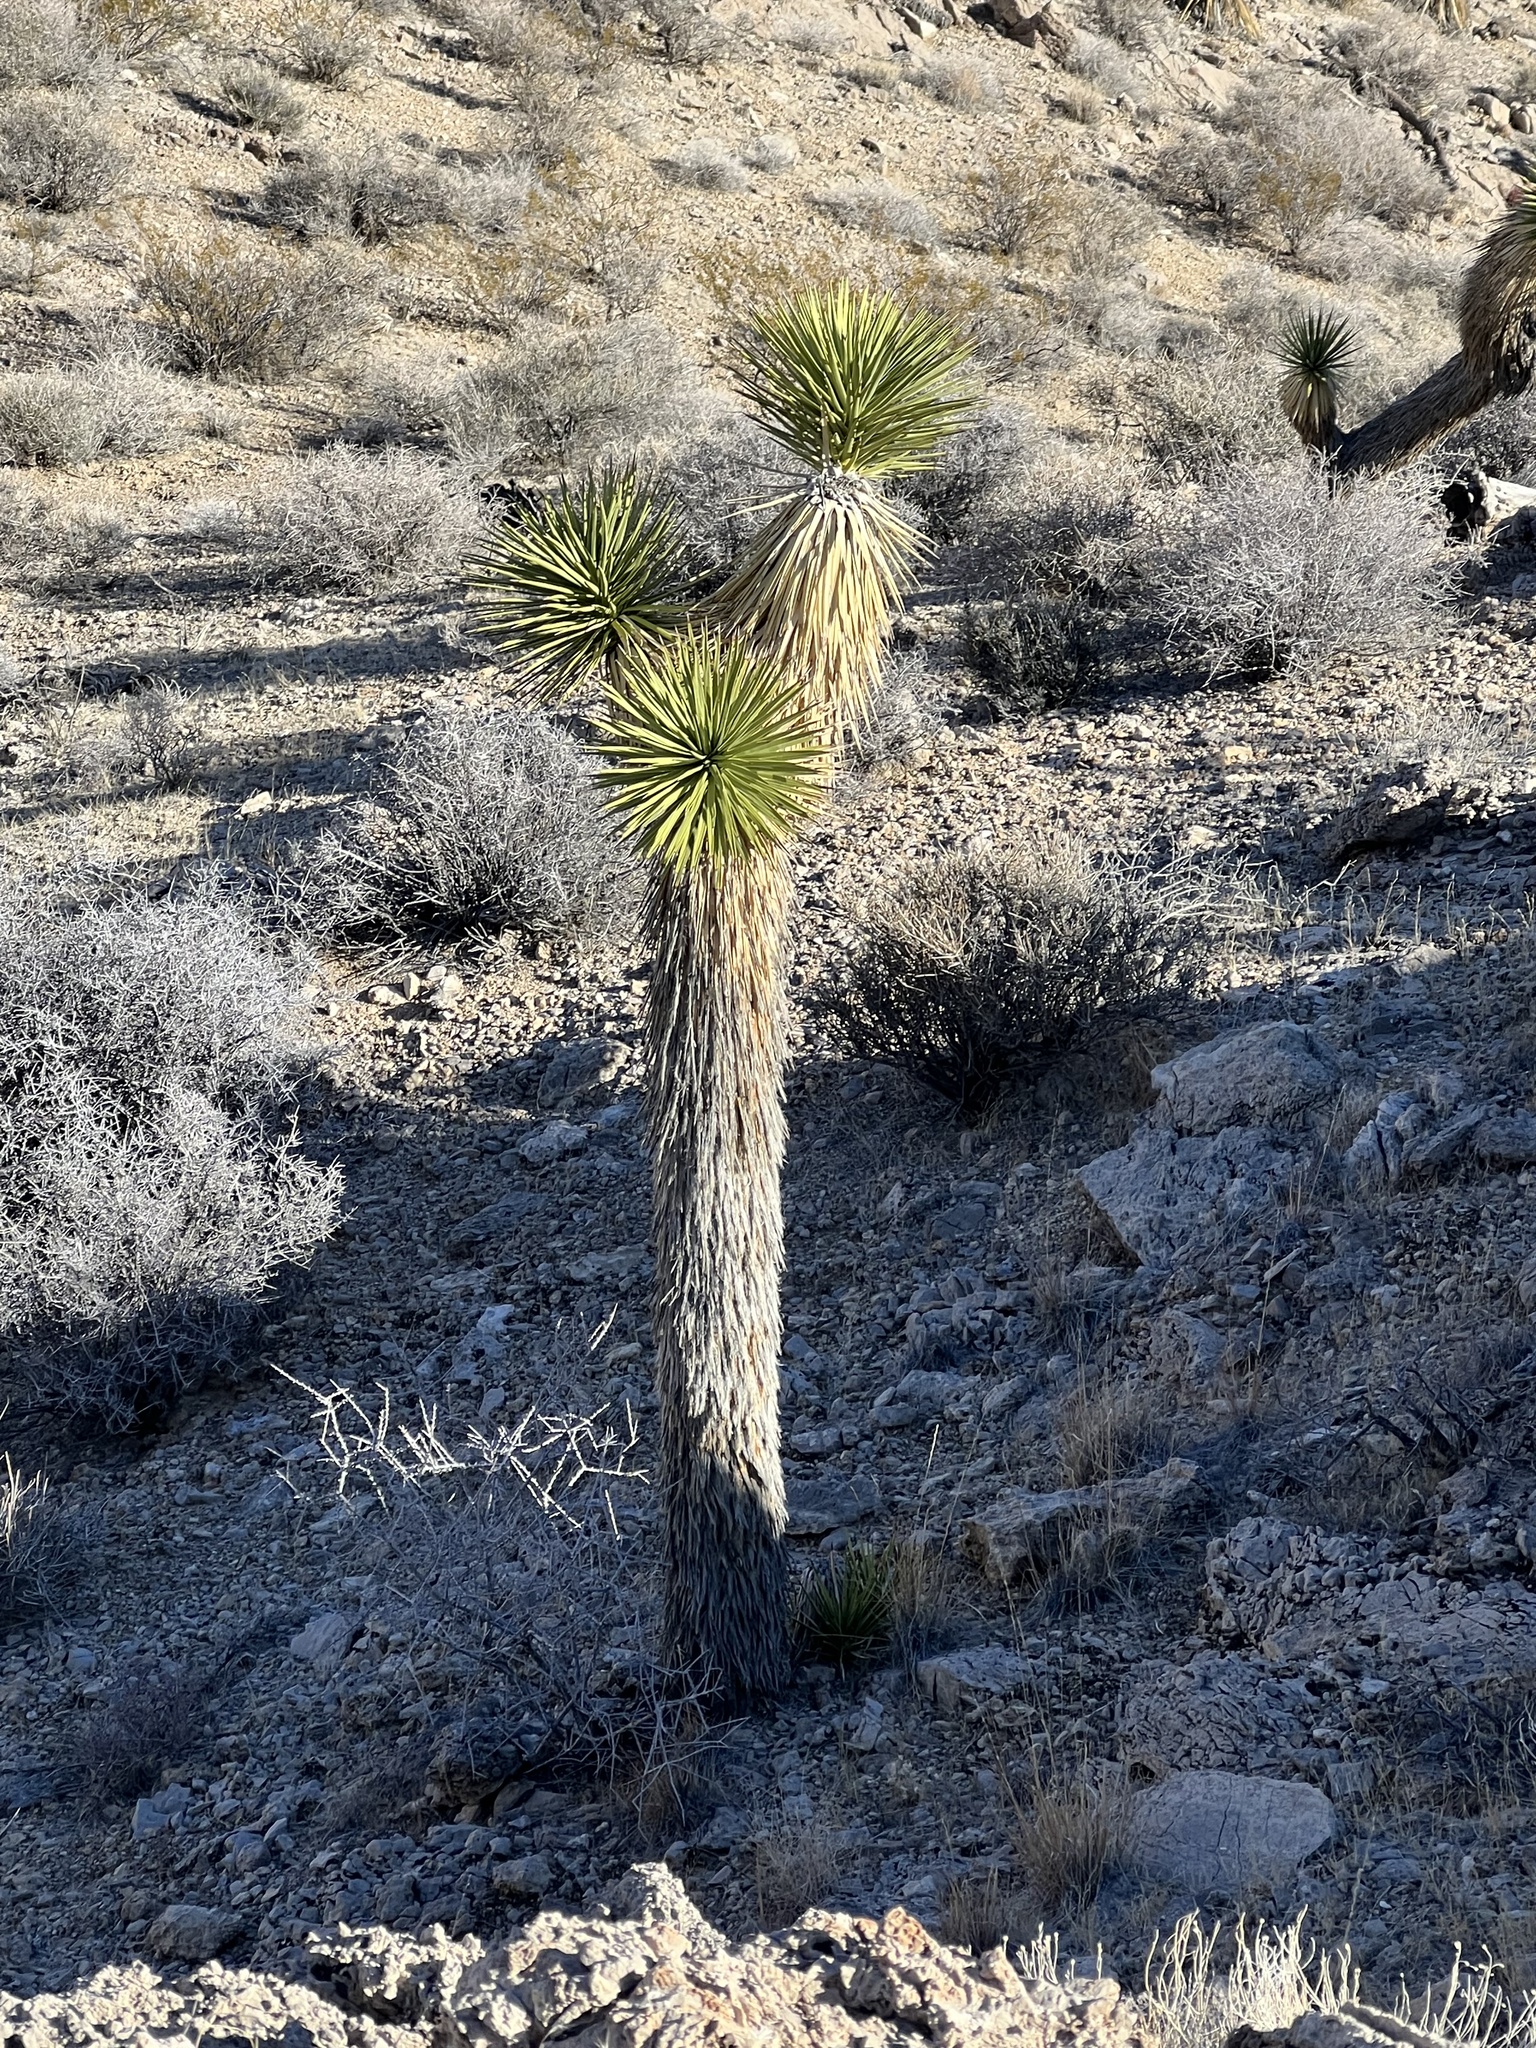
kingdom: Plantae
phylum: Tracheophyta
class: Liliopsida
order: Asparagales
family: Asparagaceae
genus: Yucca
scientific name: Yucca brevifolia
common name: Joshua tree
